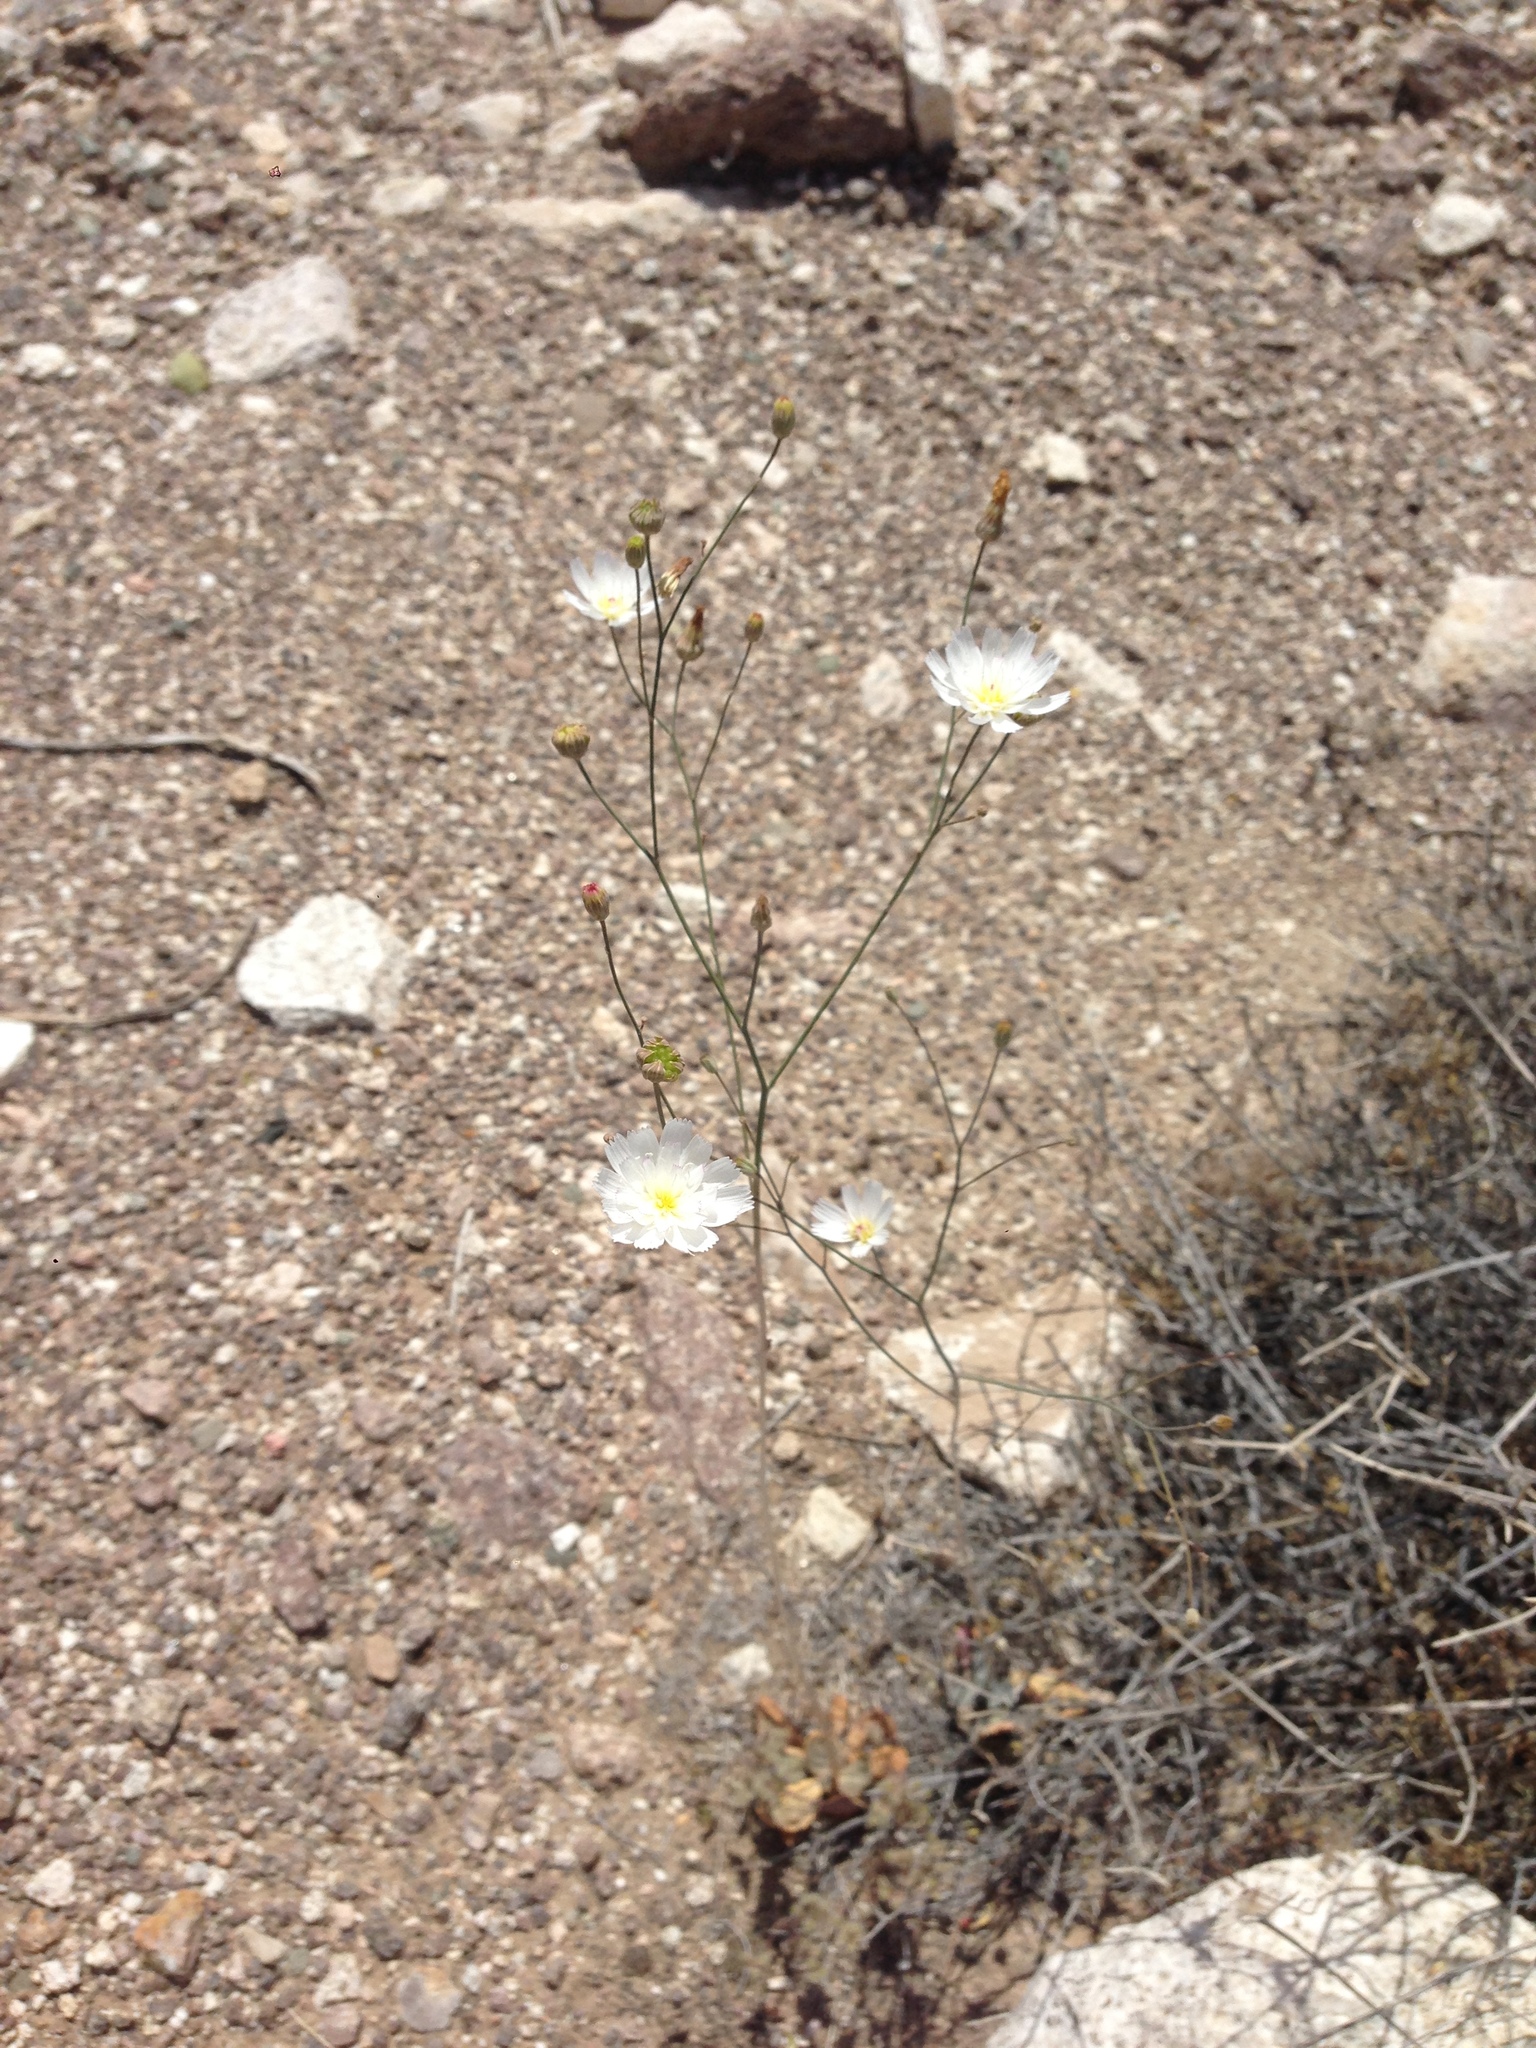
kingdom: Plantae
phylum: Tracheophyta
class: Magnoliopsida
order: Asterales
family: Asteraceae
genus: Atrichoseris
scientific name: Atrichoseris platyphylla
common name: Tobaccoweed
